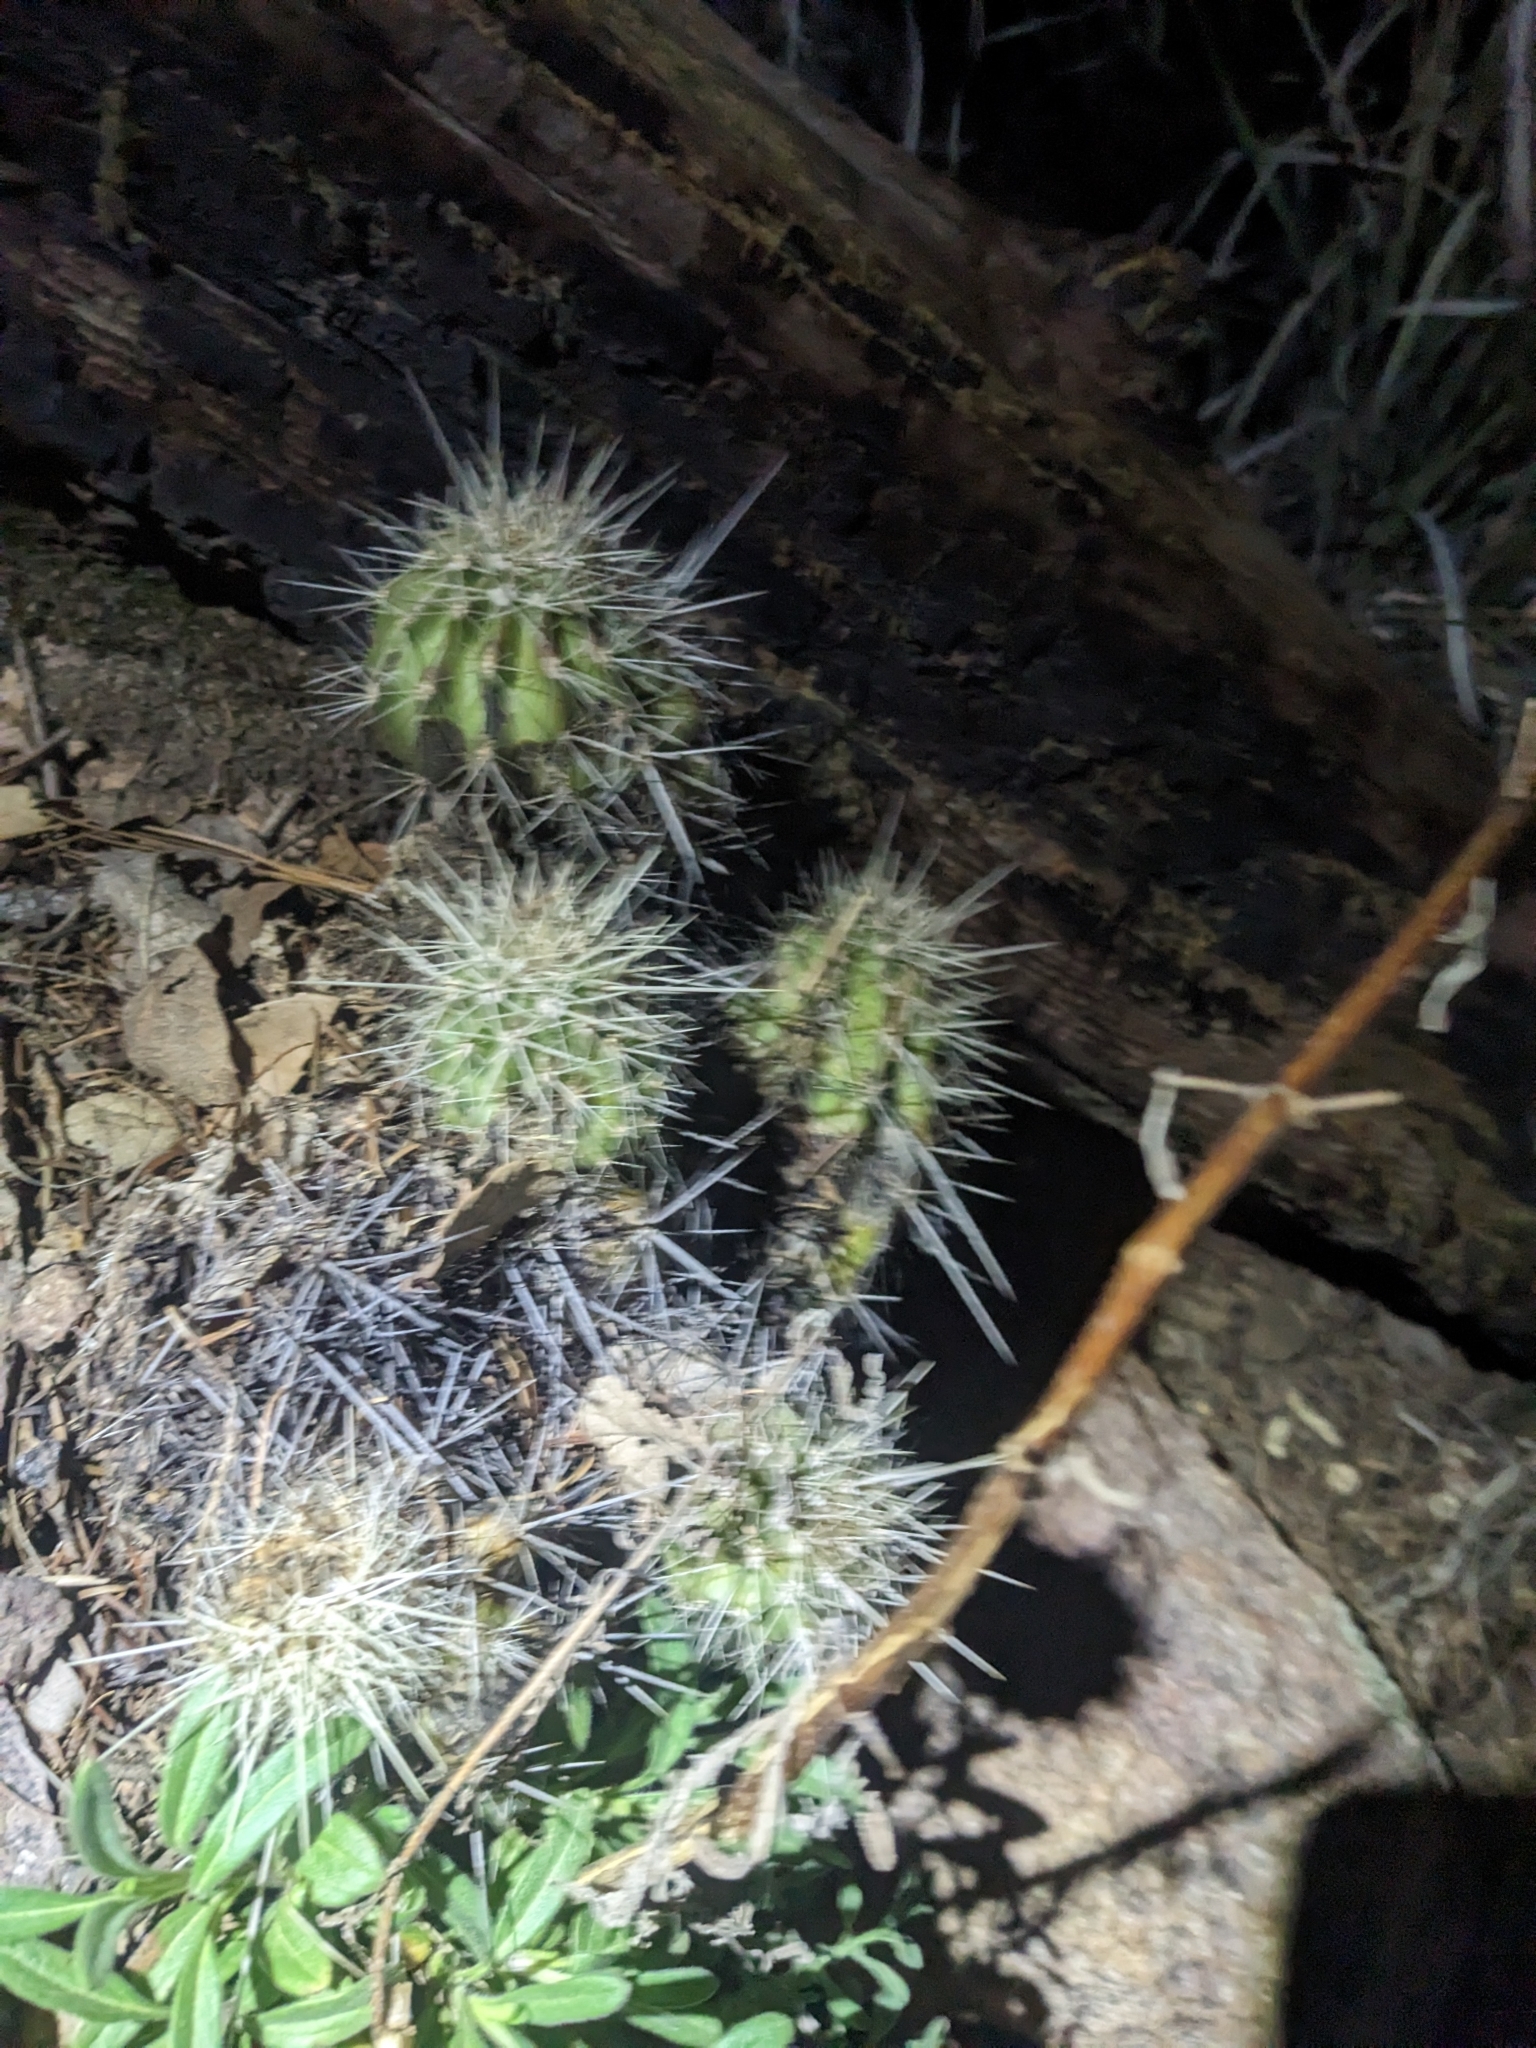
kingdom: Plantae
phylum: Tracheophyta
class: Magnoliopsida
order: Caryophyllales
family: Cactaceae
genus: Echinocereus
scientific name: Echinocereus coccineus
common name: Scarlet hedgehog cactus
